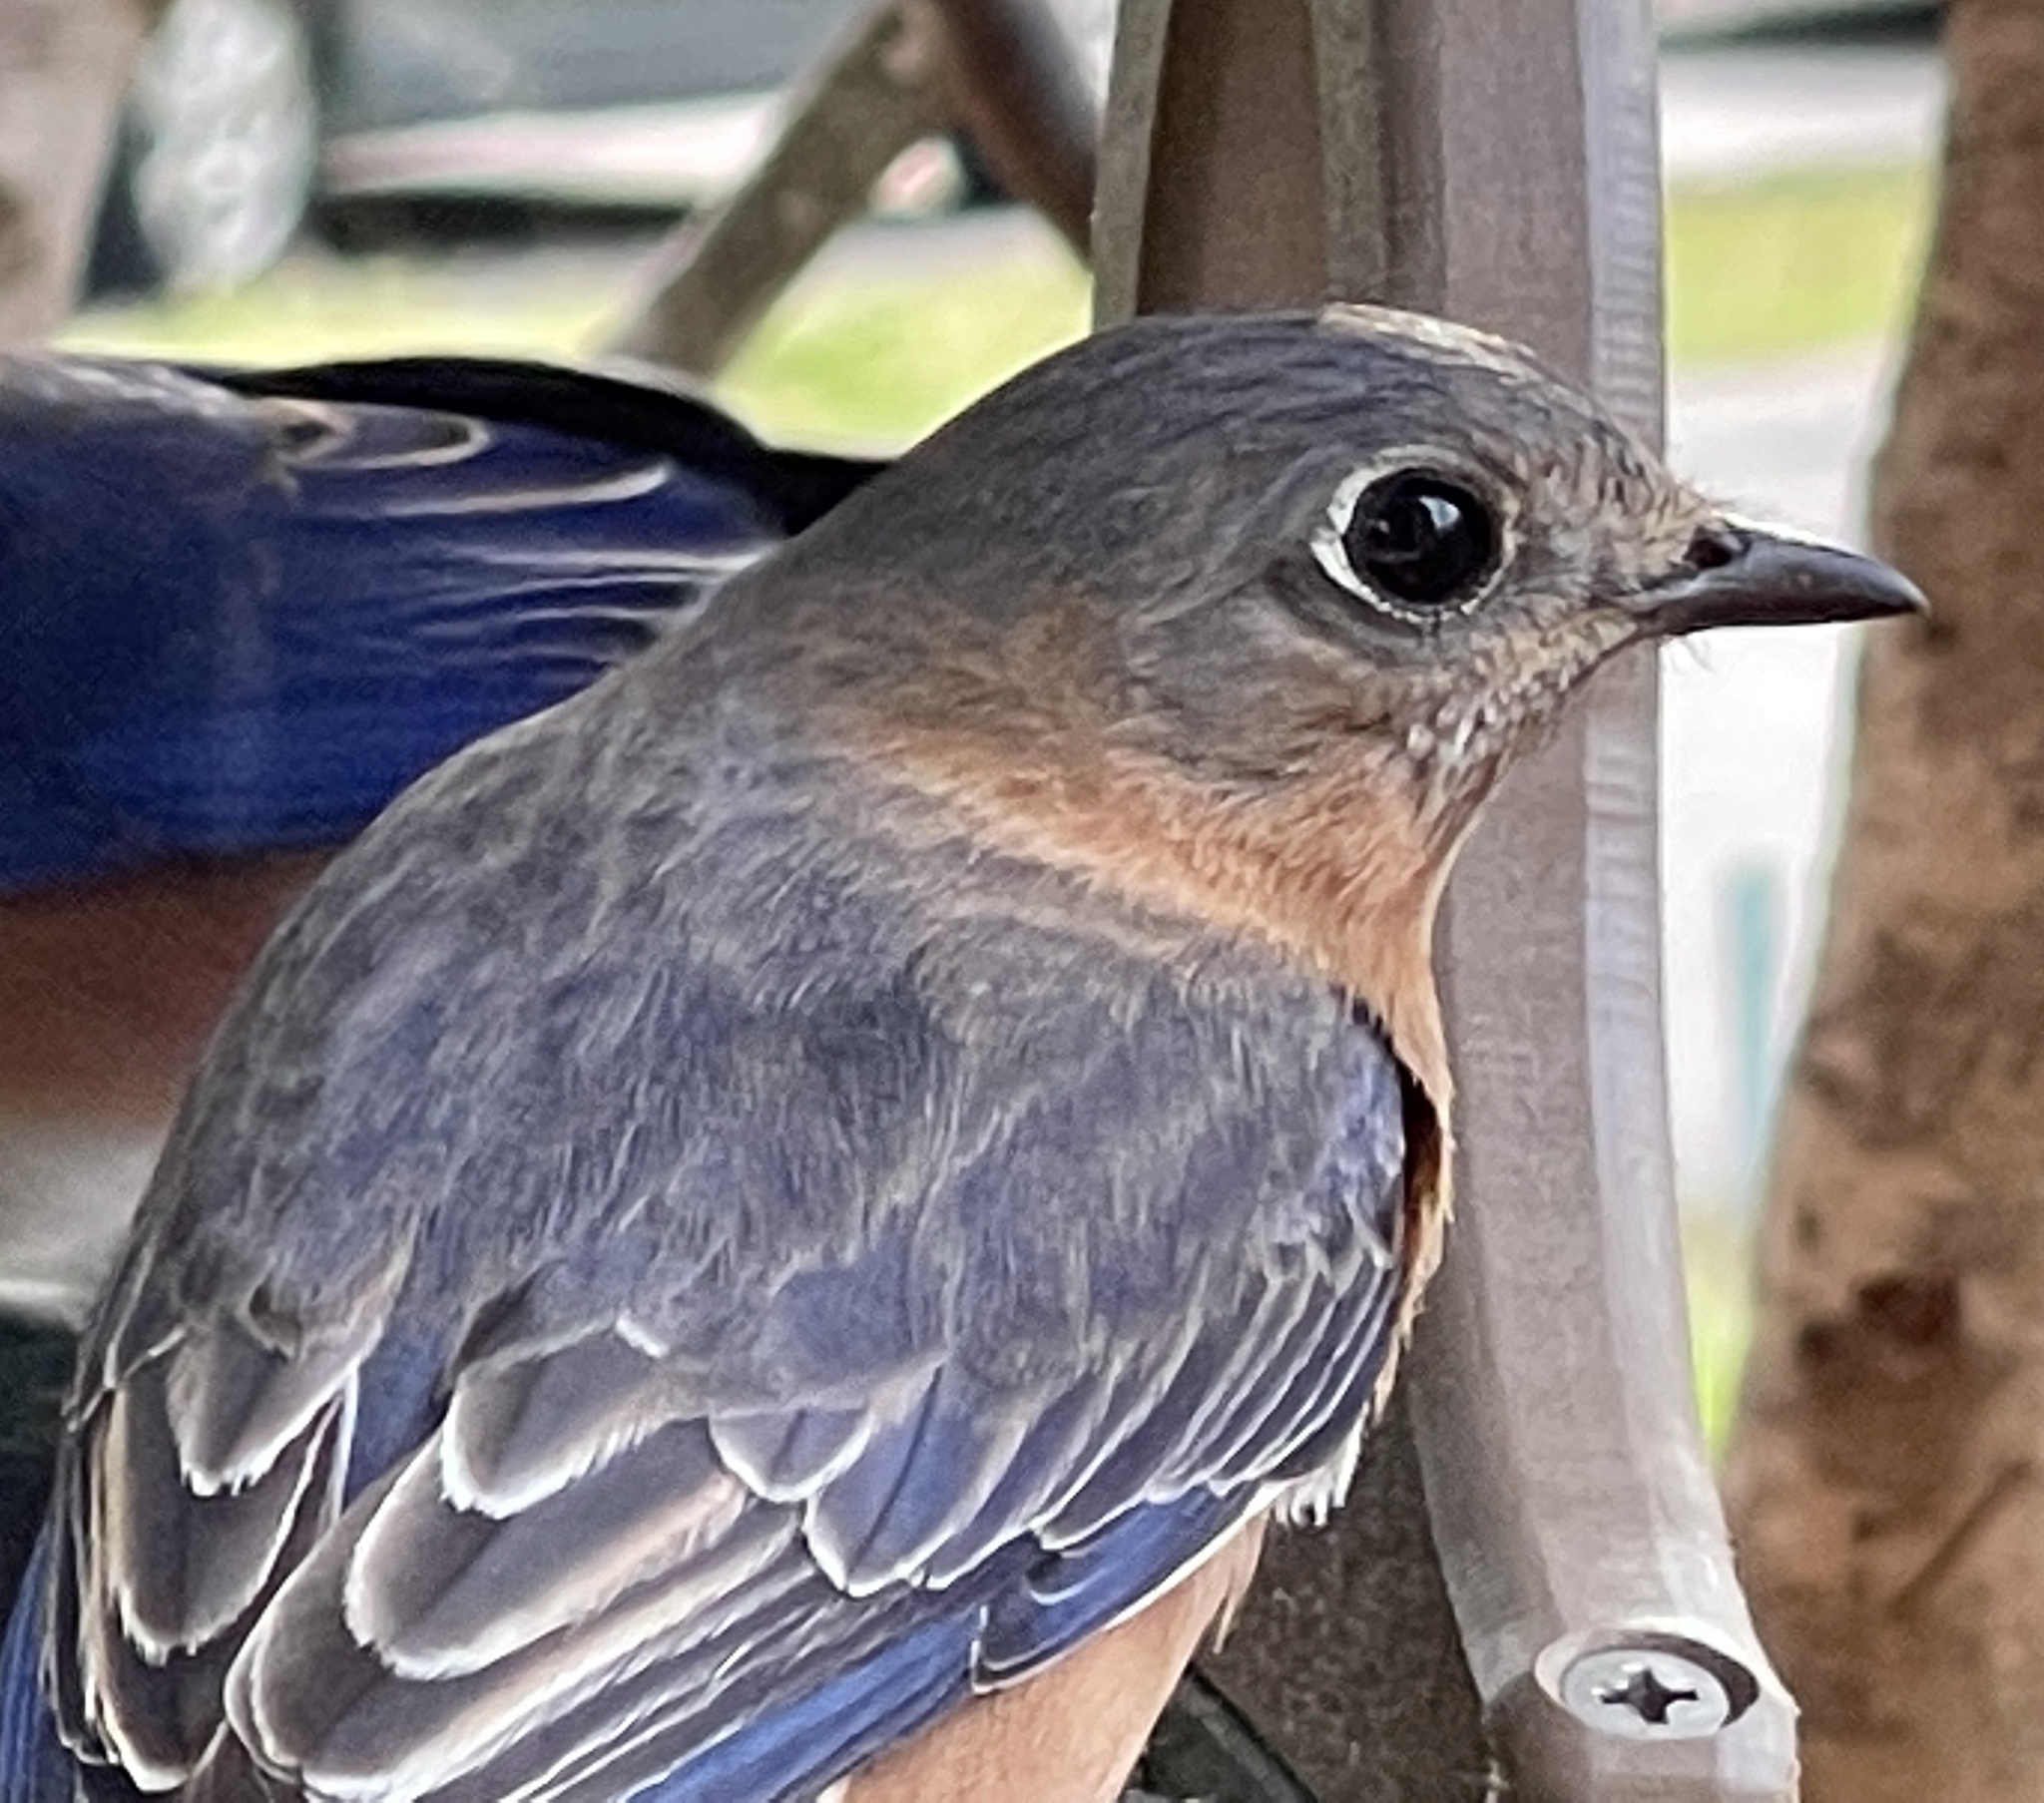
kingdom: Animalia
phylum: Chordata
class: Aves
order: Passeriformes
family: Turdidae
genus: Sialia
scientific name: Sialia sialis
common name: Eastern bluebird
